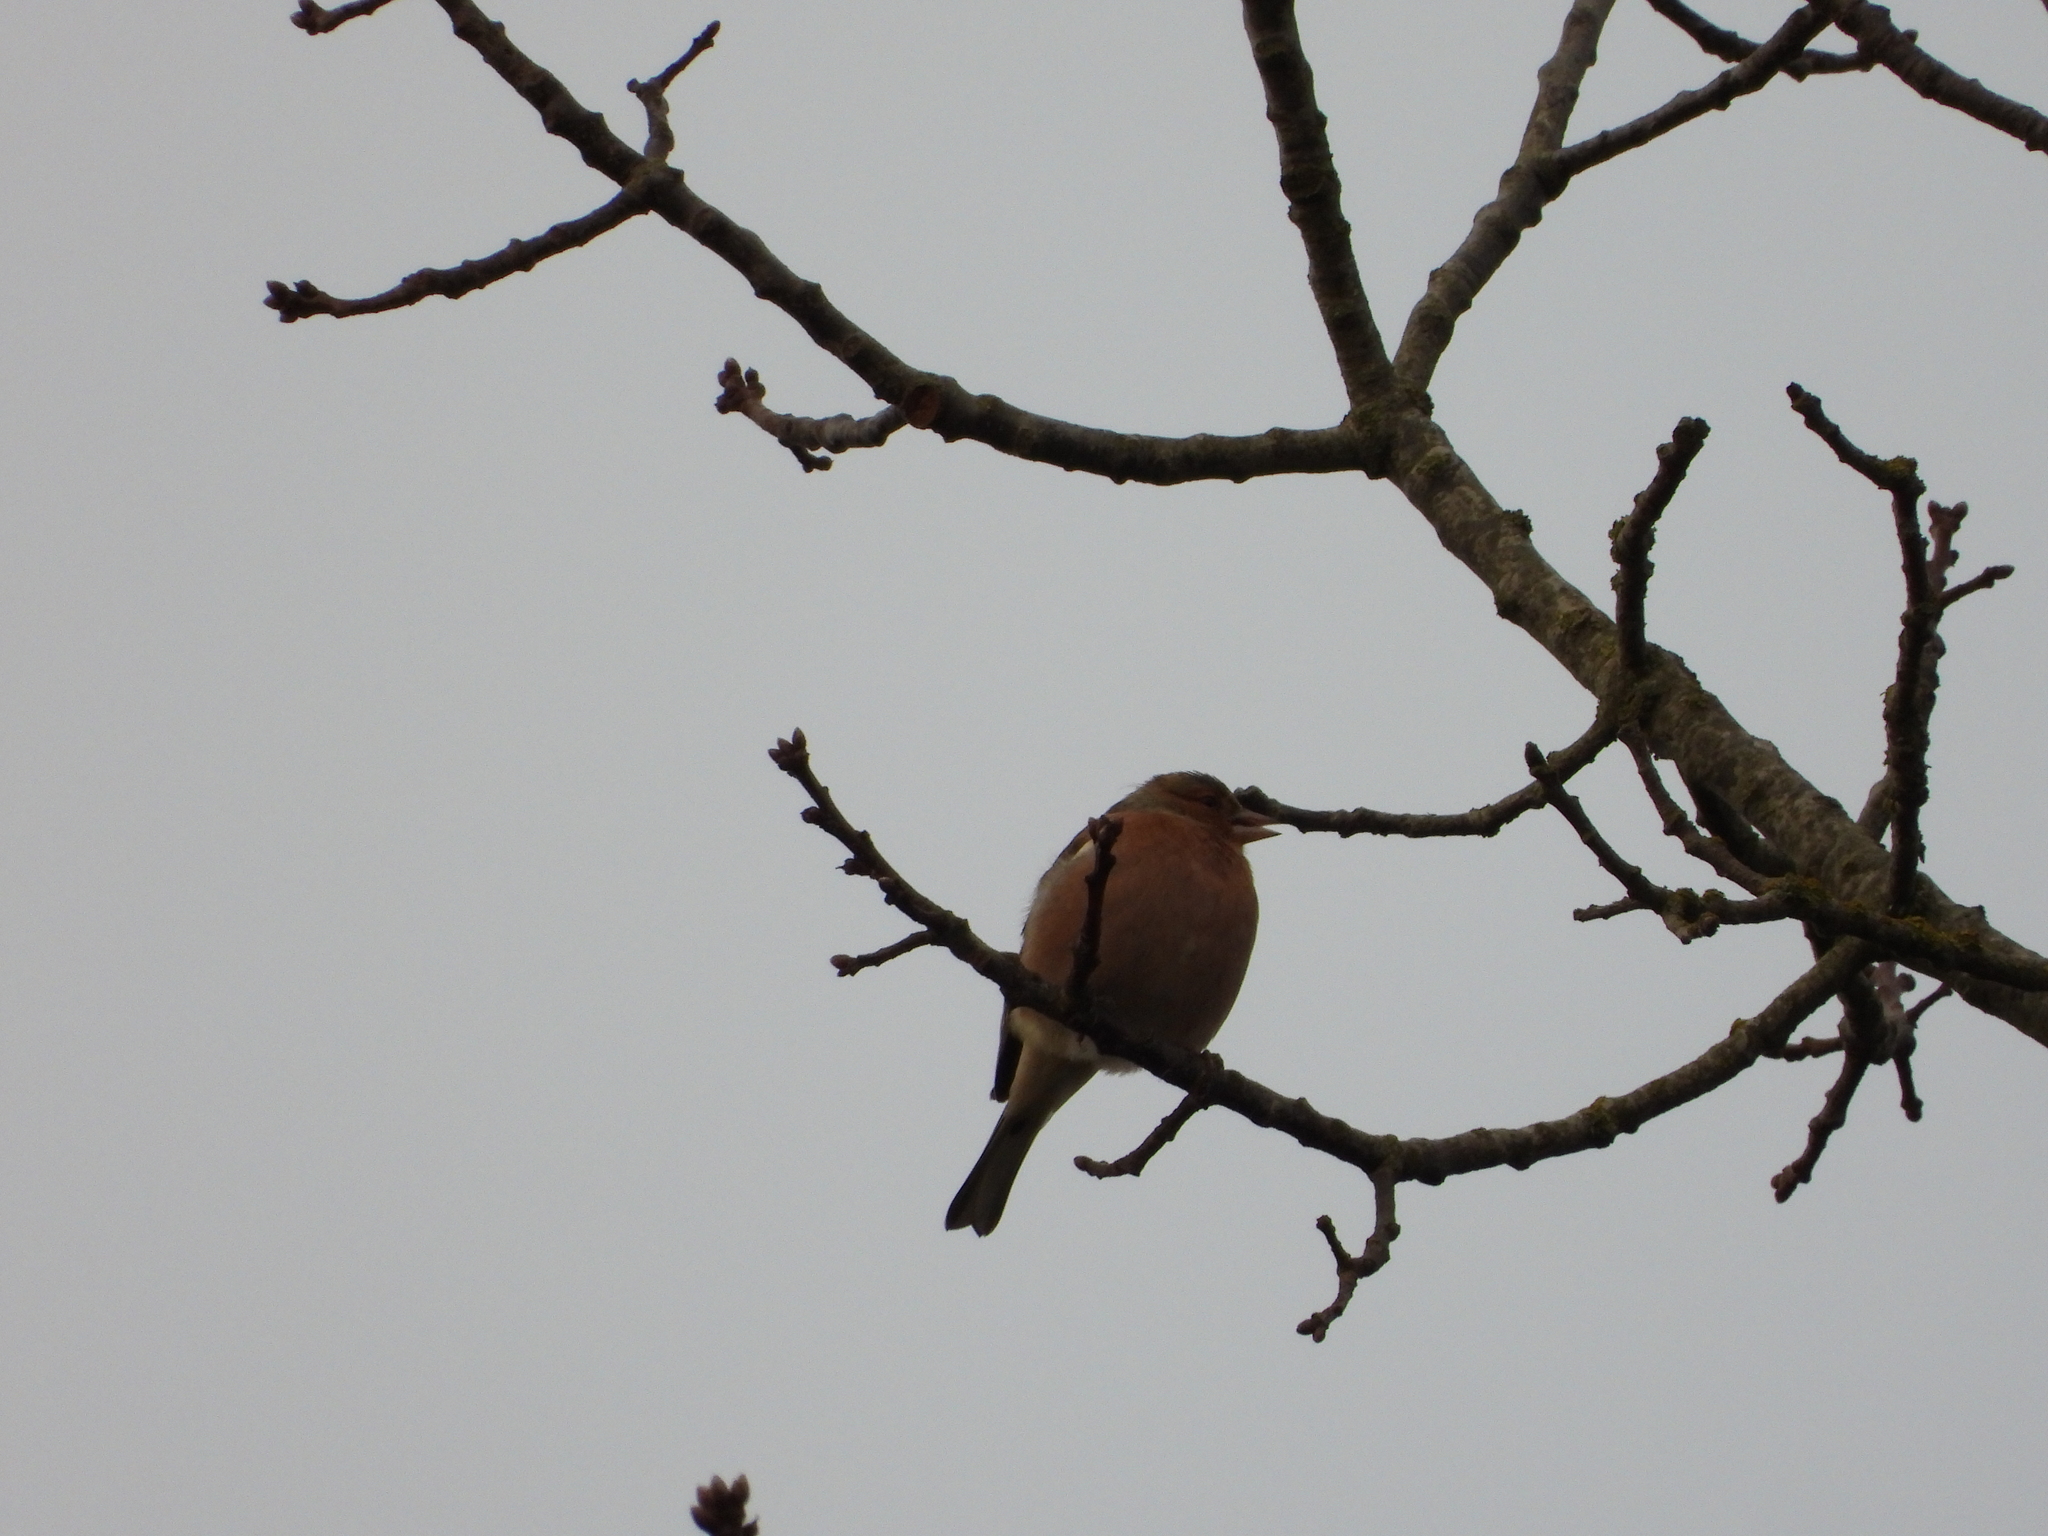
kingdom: Animalia
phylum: Chordata
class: Aves
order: Passeriformes
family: Fringillidae
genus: Fringilla
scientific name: Fringilla coelebs
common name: Common chaffinch
